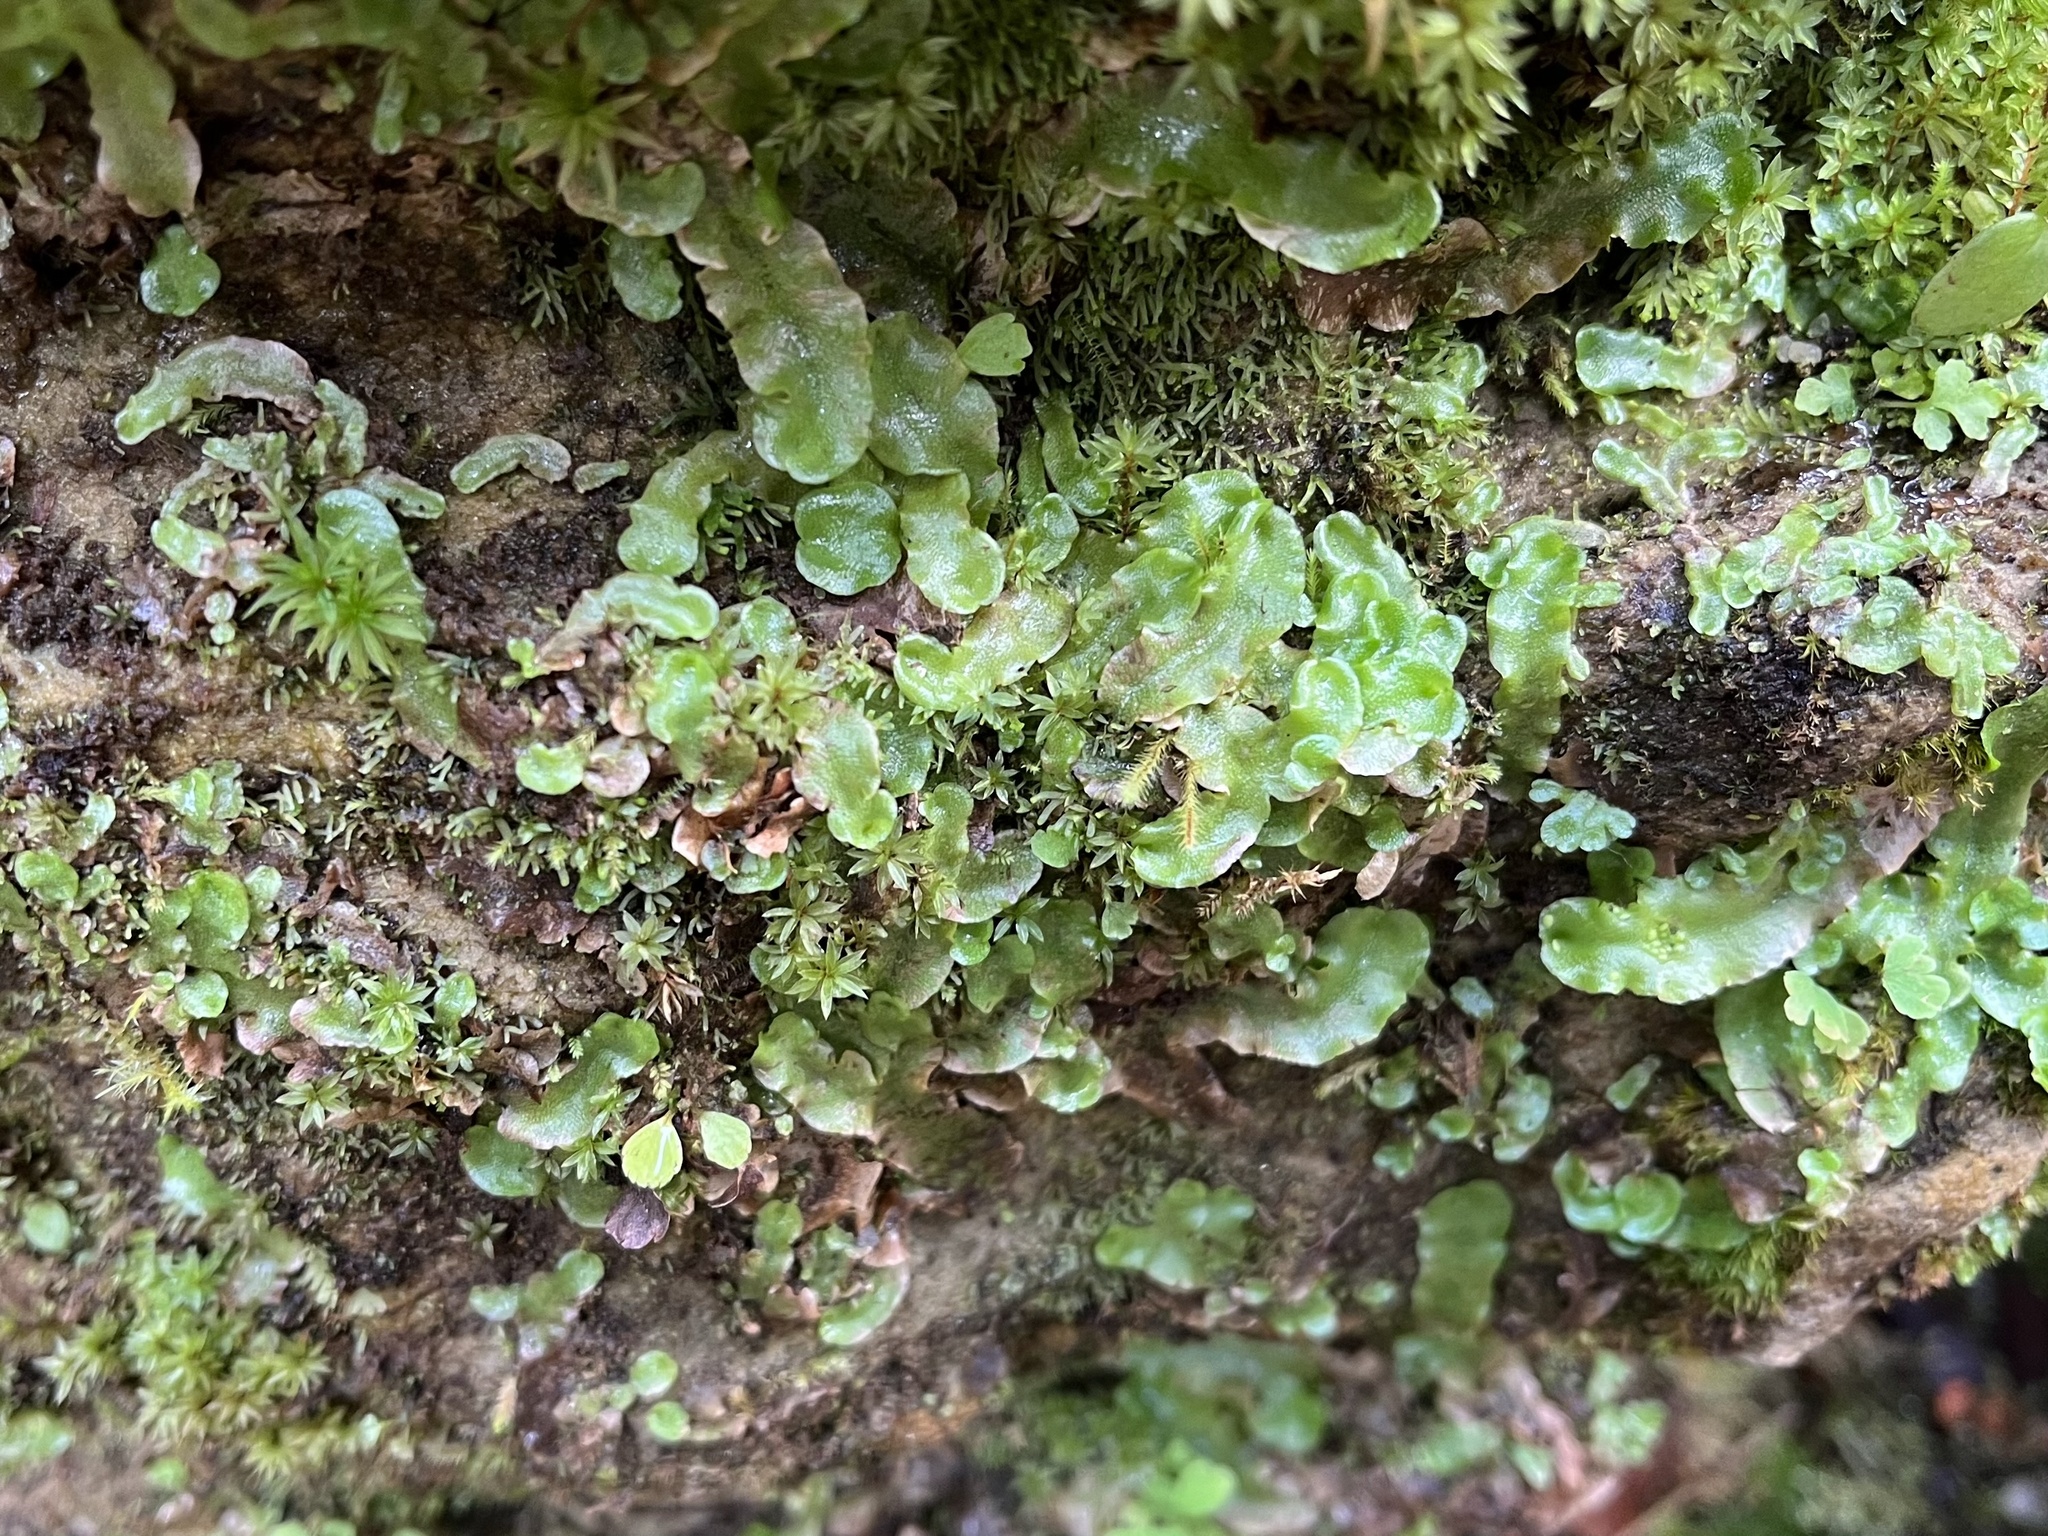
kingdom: Plantae
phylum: Marchantiophyta
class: Marchantiopsida
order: Lunulariales
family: Lunulariaceae
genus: Lunularia
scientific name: Lunularia cruciata
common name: Crescent-cup liverwort
